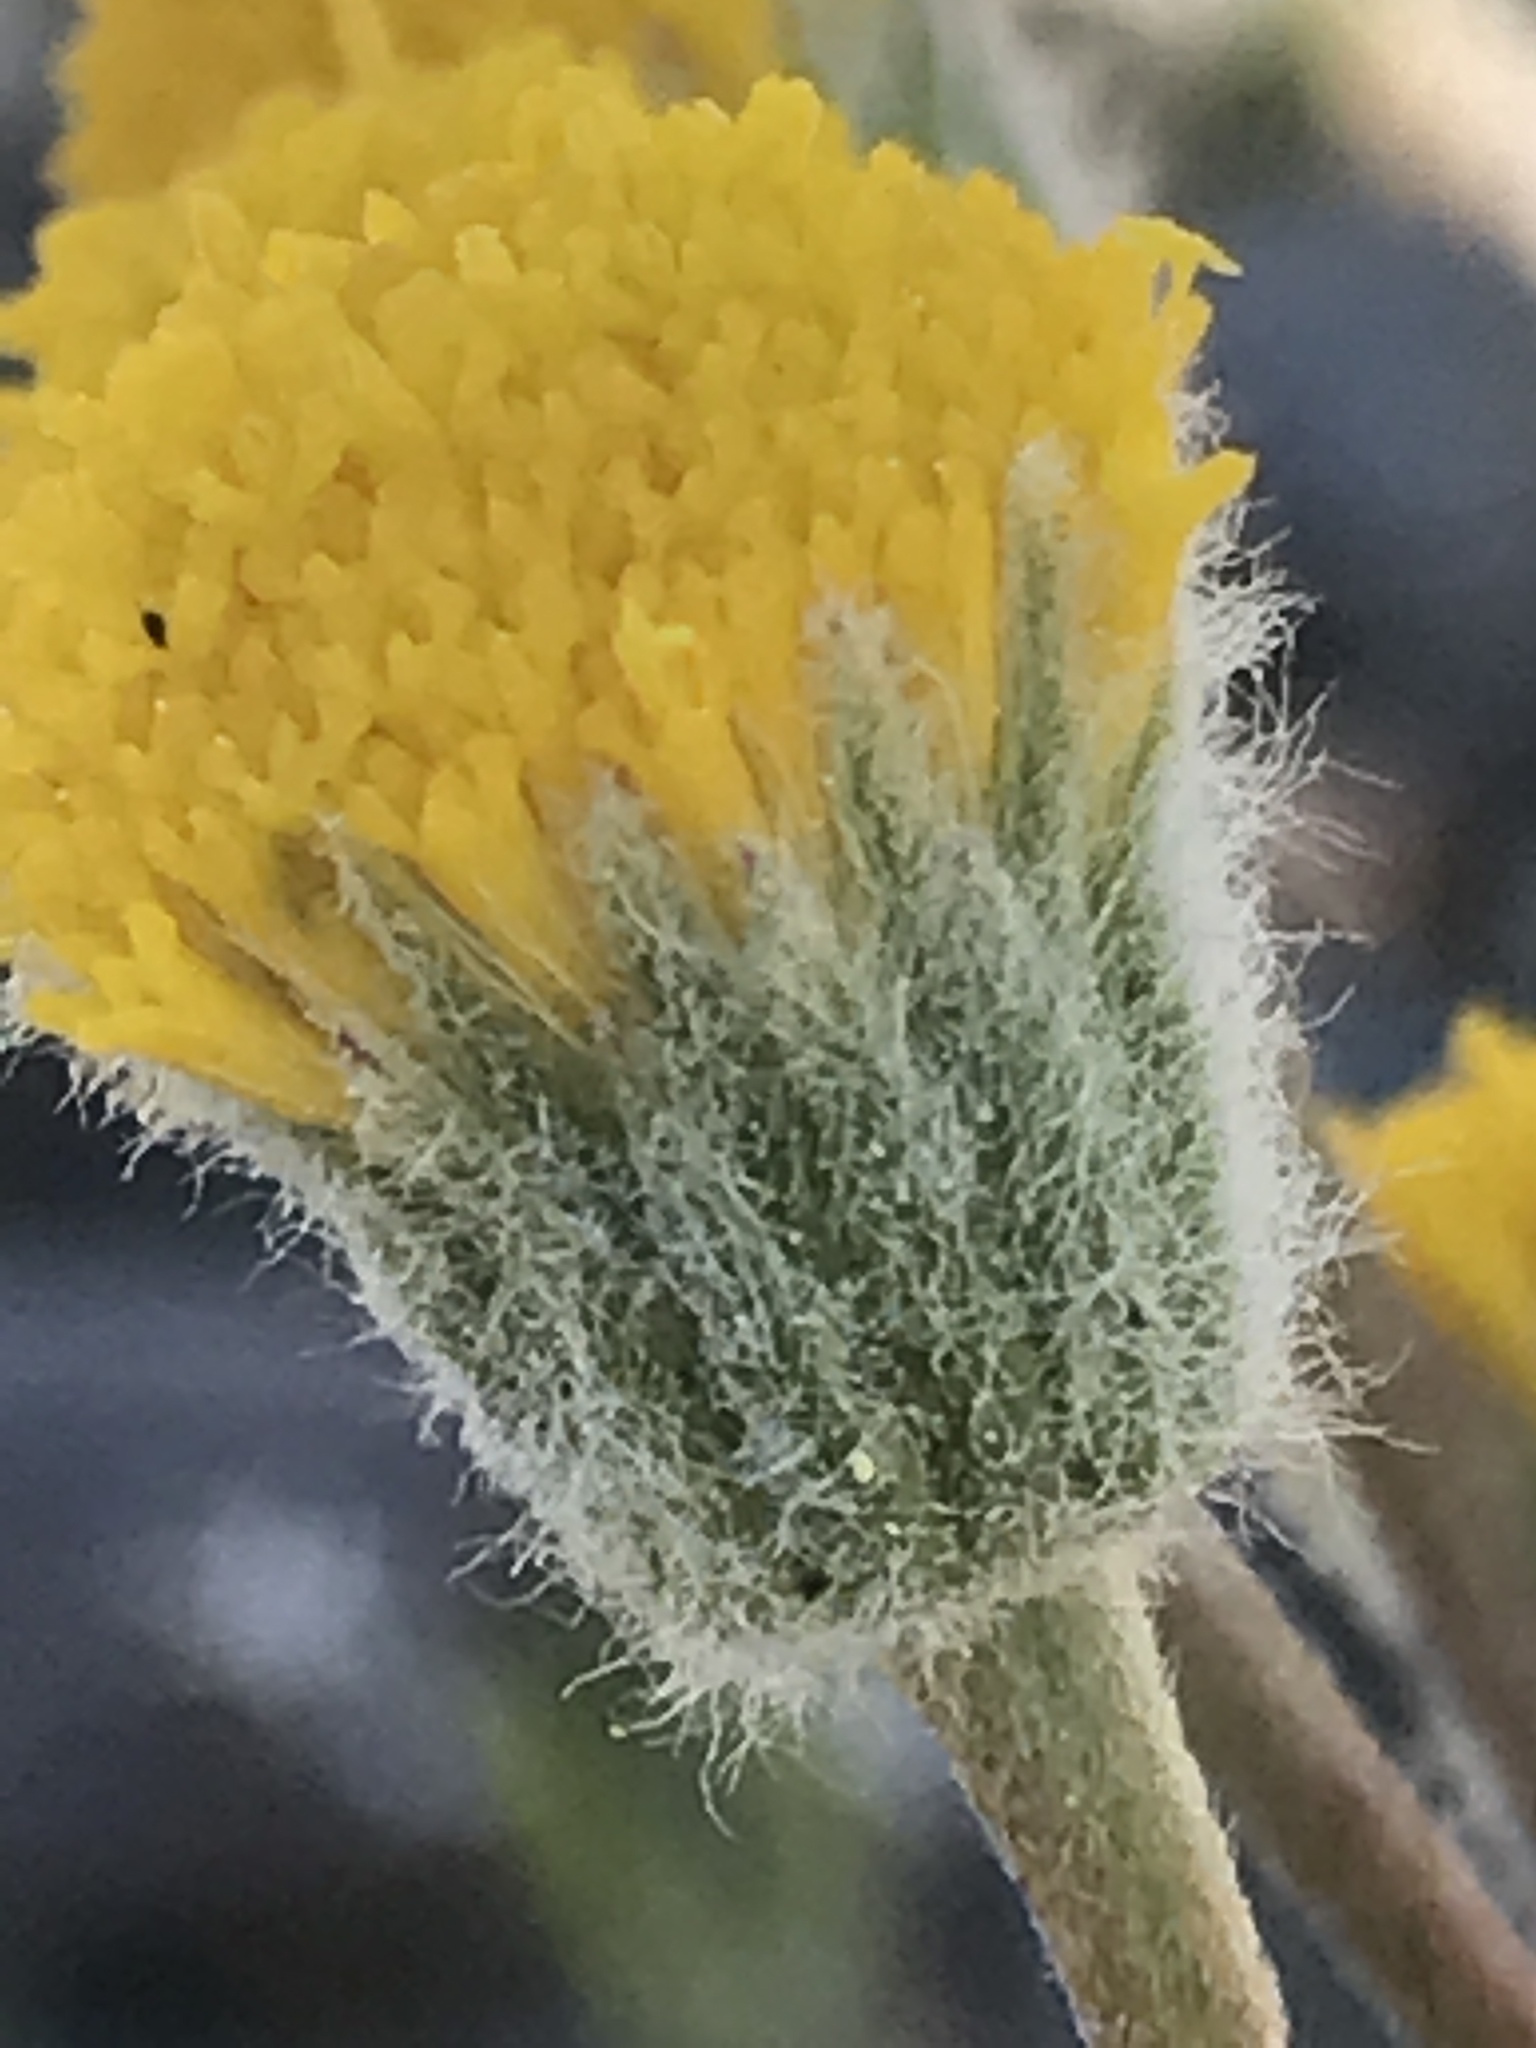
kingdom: Plantae
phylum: Tracheophyta
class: Magnoliopsida
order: Asterales
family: Asteraceae
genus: Erigeron
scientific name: Erigeron bloomeri
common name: Bloomer's fleabane
